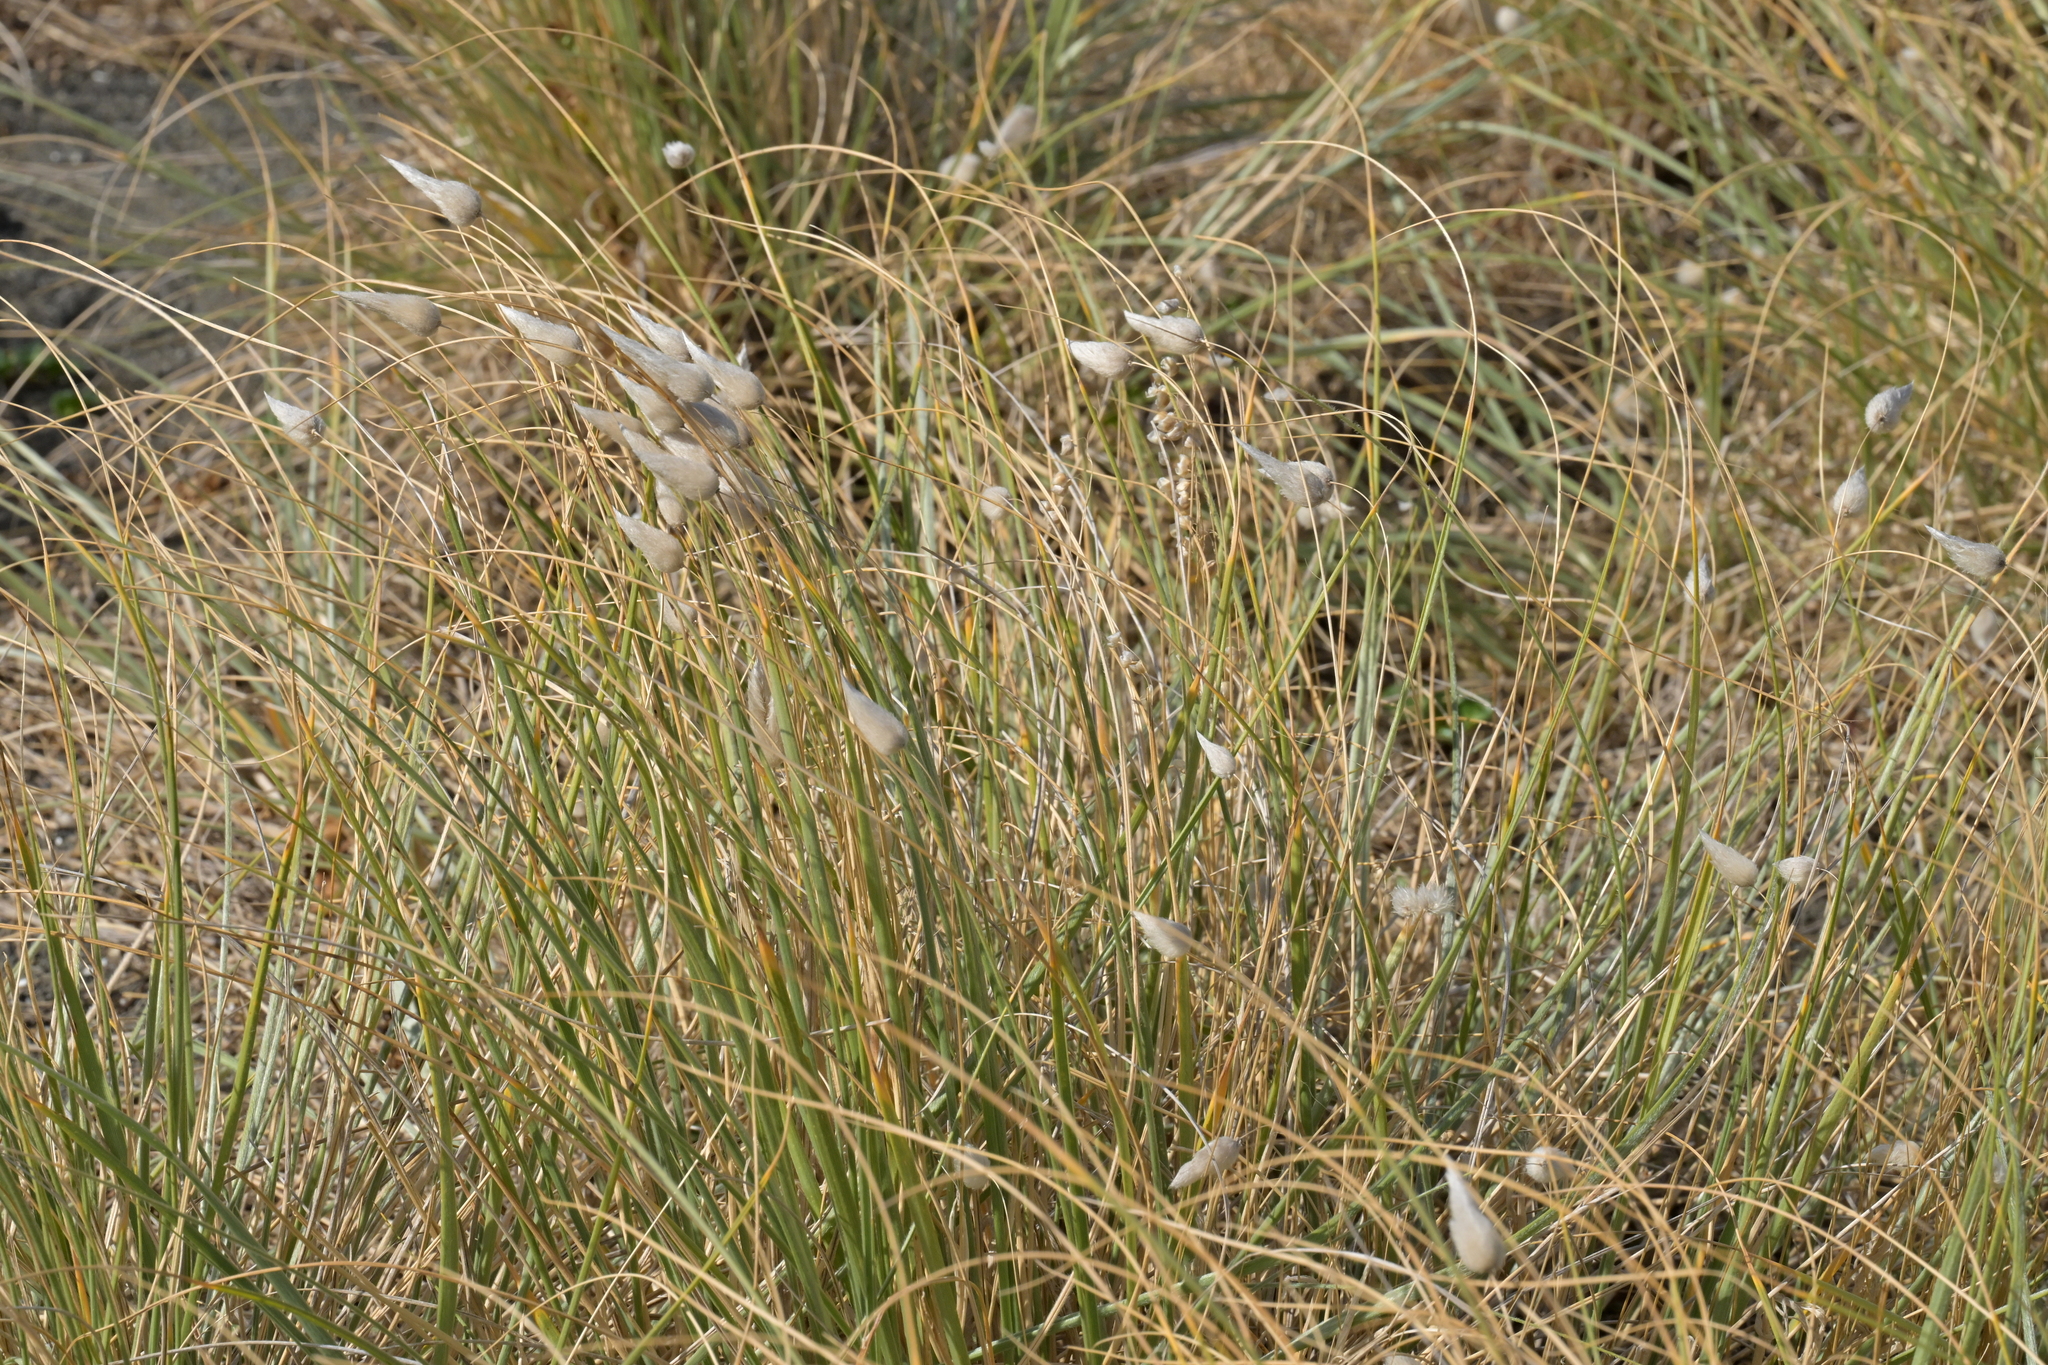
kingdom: Plantae
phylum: Tracheophyta
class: Liliopsida
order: Poales
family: Poaceae
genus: Lagurus
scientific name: Lagurus ovatus
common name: Hare's-tail
